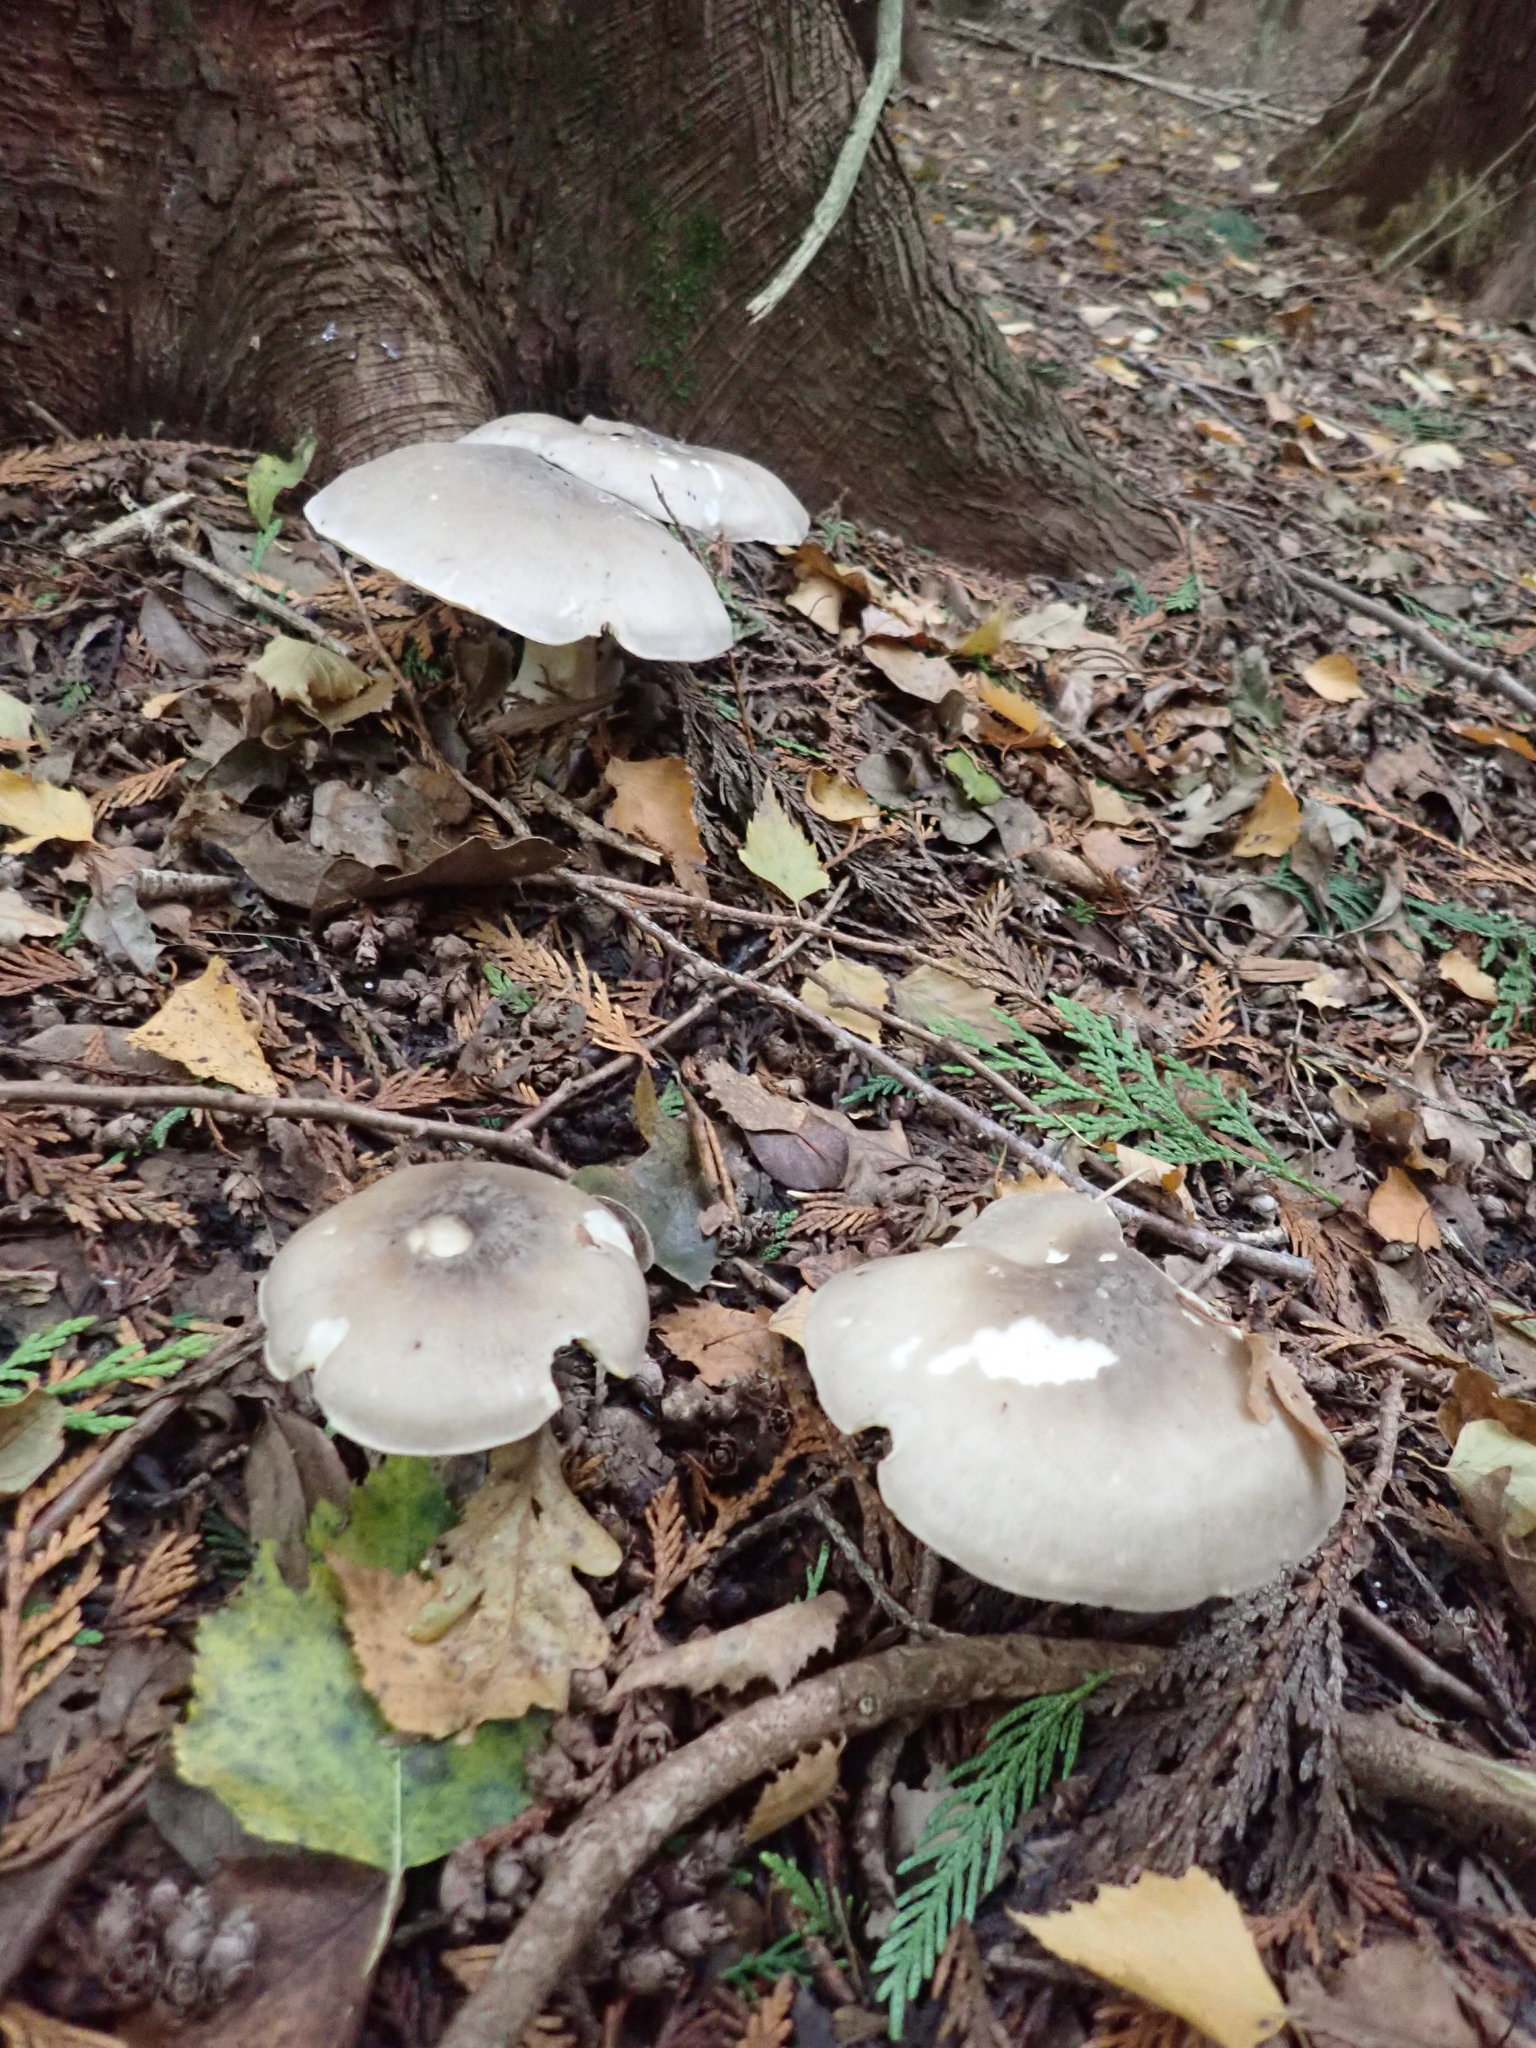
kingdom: Fungi
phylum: Basidiomycota
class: Agaricomycetes
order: Agaricales
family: Tricholomataceae
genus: Clitocybe
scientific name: Clitocybe nebularis
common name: Clouded agaric
